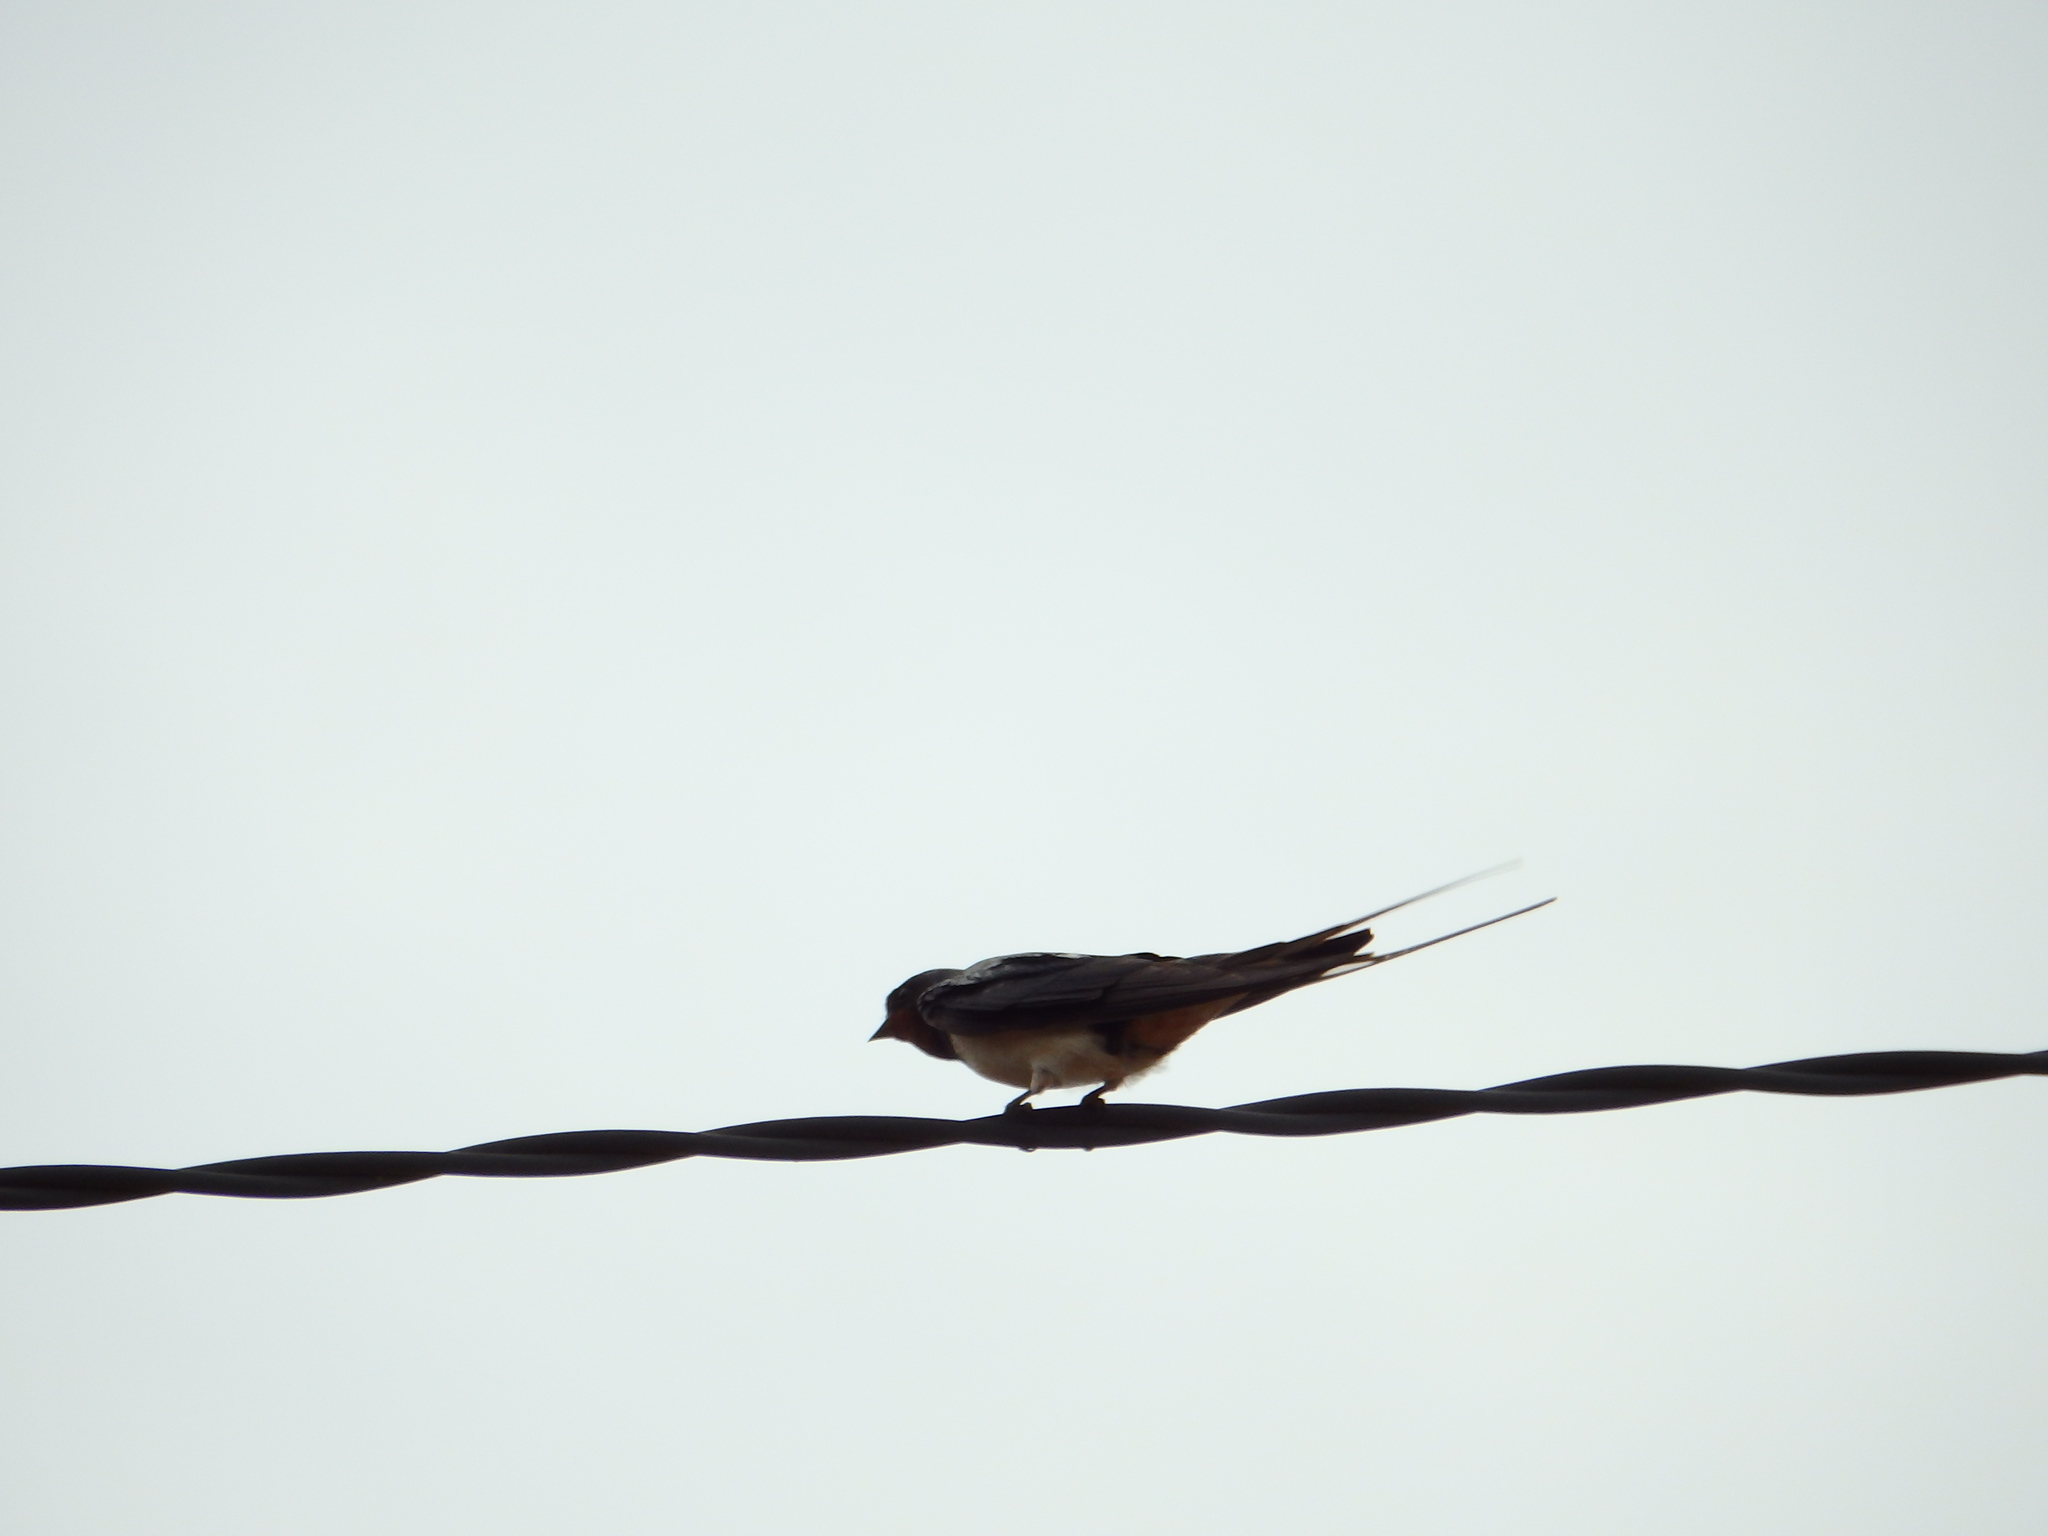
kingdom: Animalia
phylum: Chordata
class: Aves
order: Passeriformes
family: Hirundinidae
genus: Hirundo
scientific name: Hirundo rustica
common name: Barn swallow
